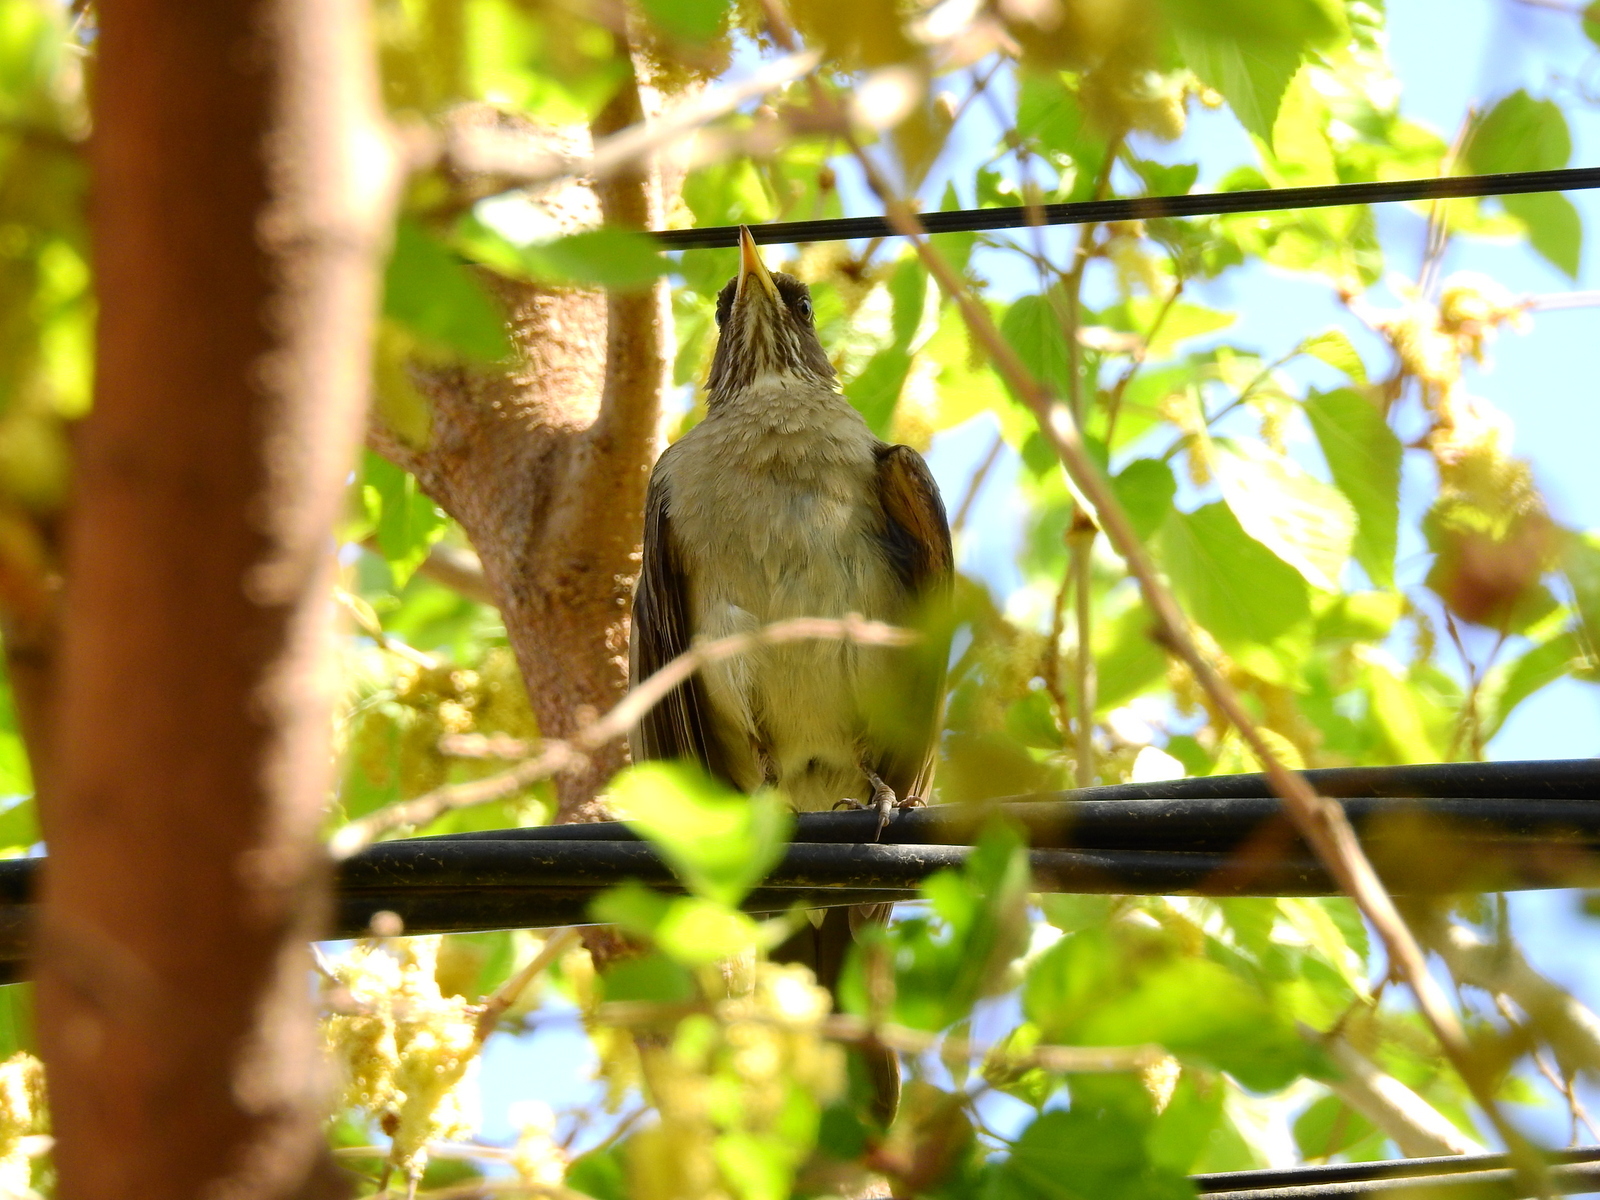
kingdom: Animalia
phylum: Chordata
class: Aves
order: Passeriformes
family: Turdidae
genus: Turdus
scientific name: Turdus amaurochalinus
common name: Creamy-bellied thrush
